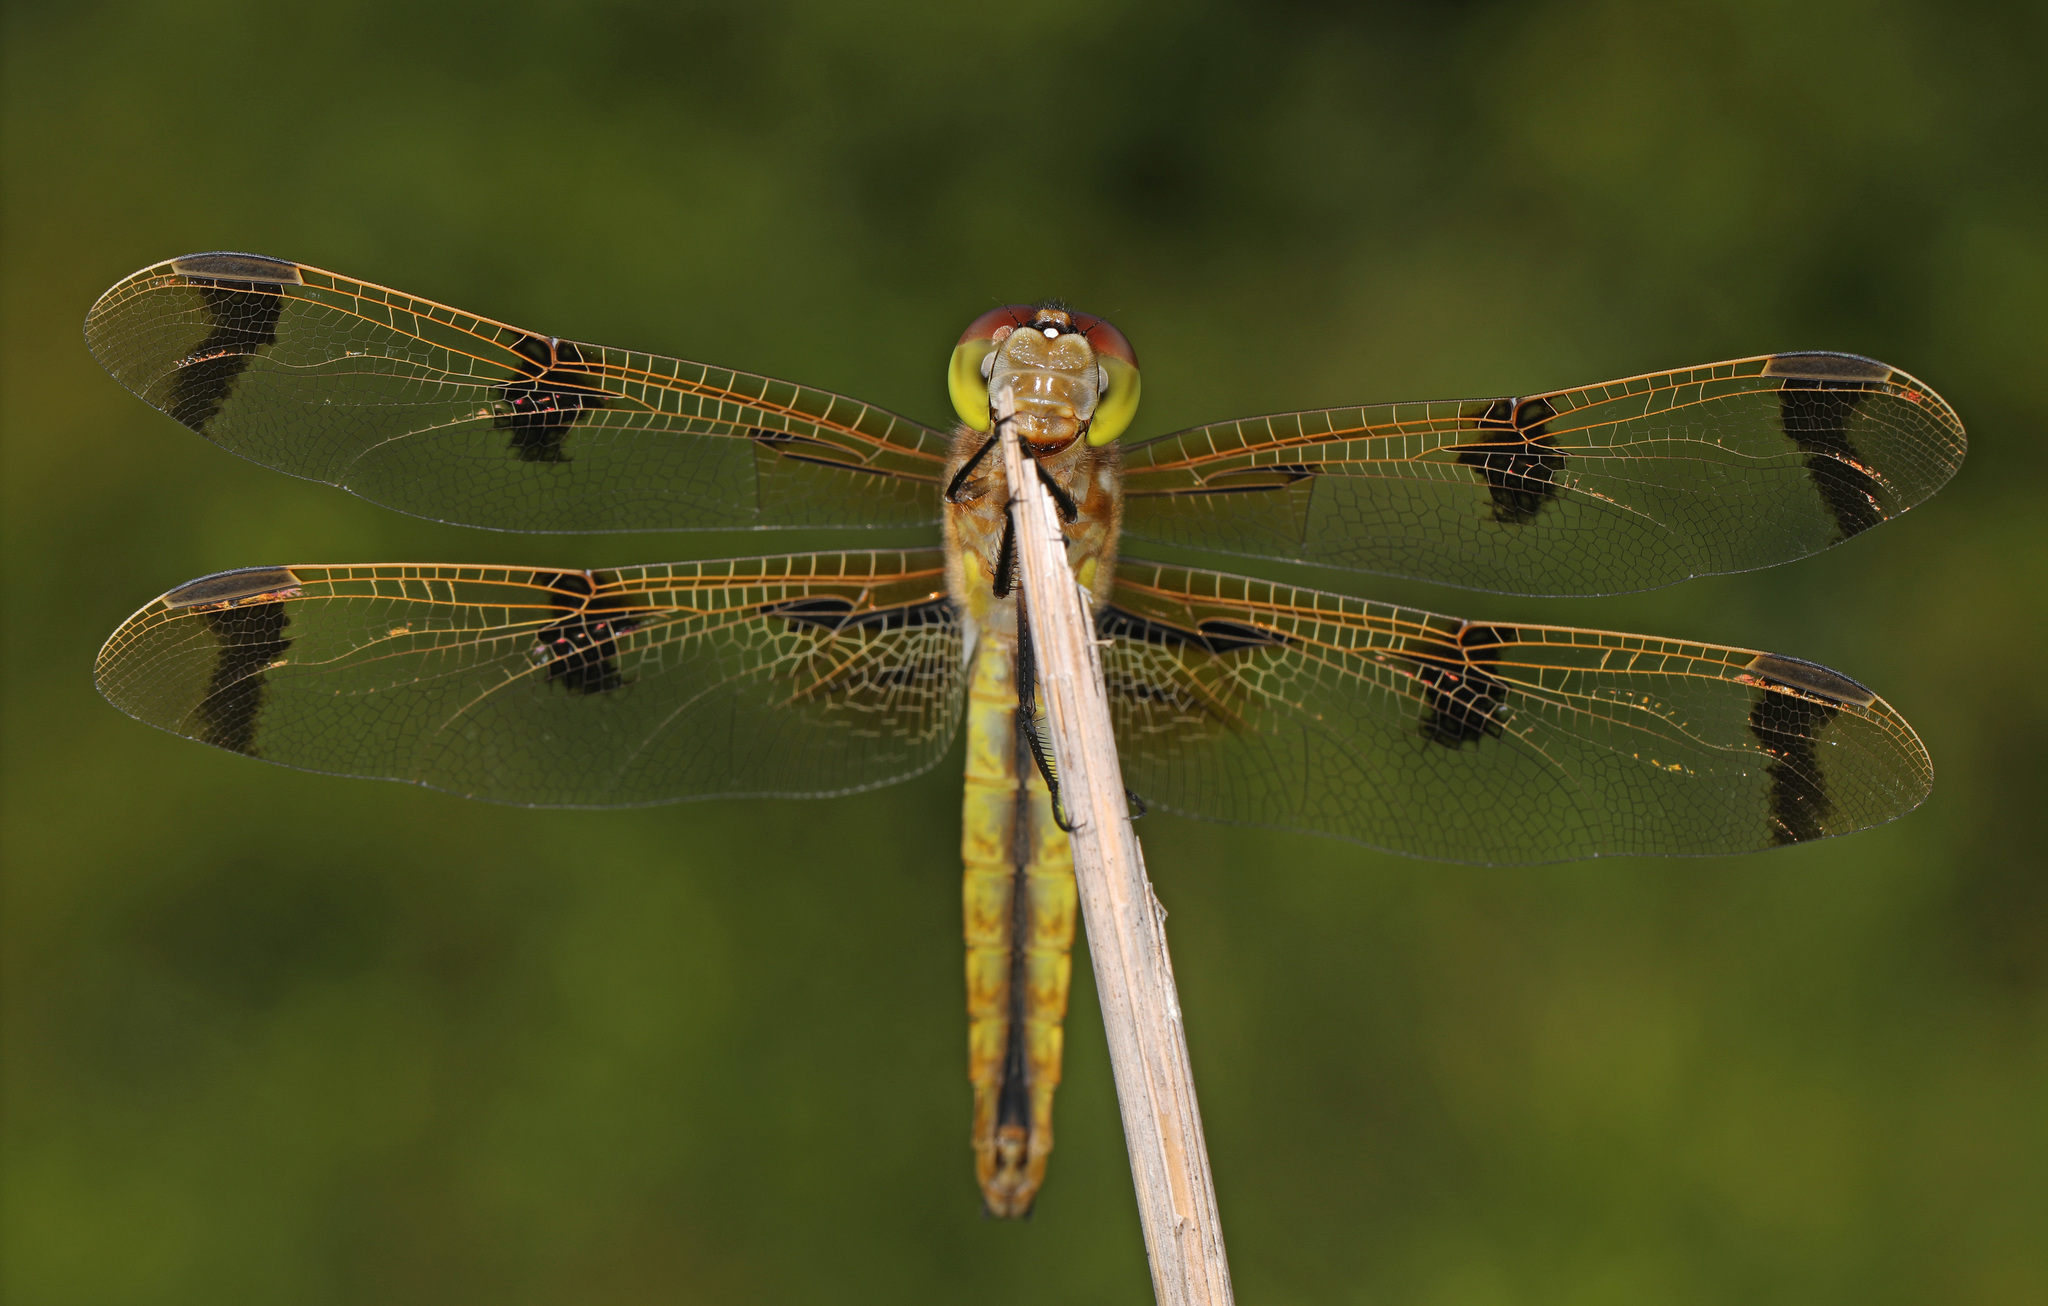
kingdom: Animalia
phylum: Arthropoda
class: Insecta
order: Odonata
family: Libellulidae
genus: Libellula
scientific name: Libellula semifasciata
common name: Painted skimmer
